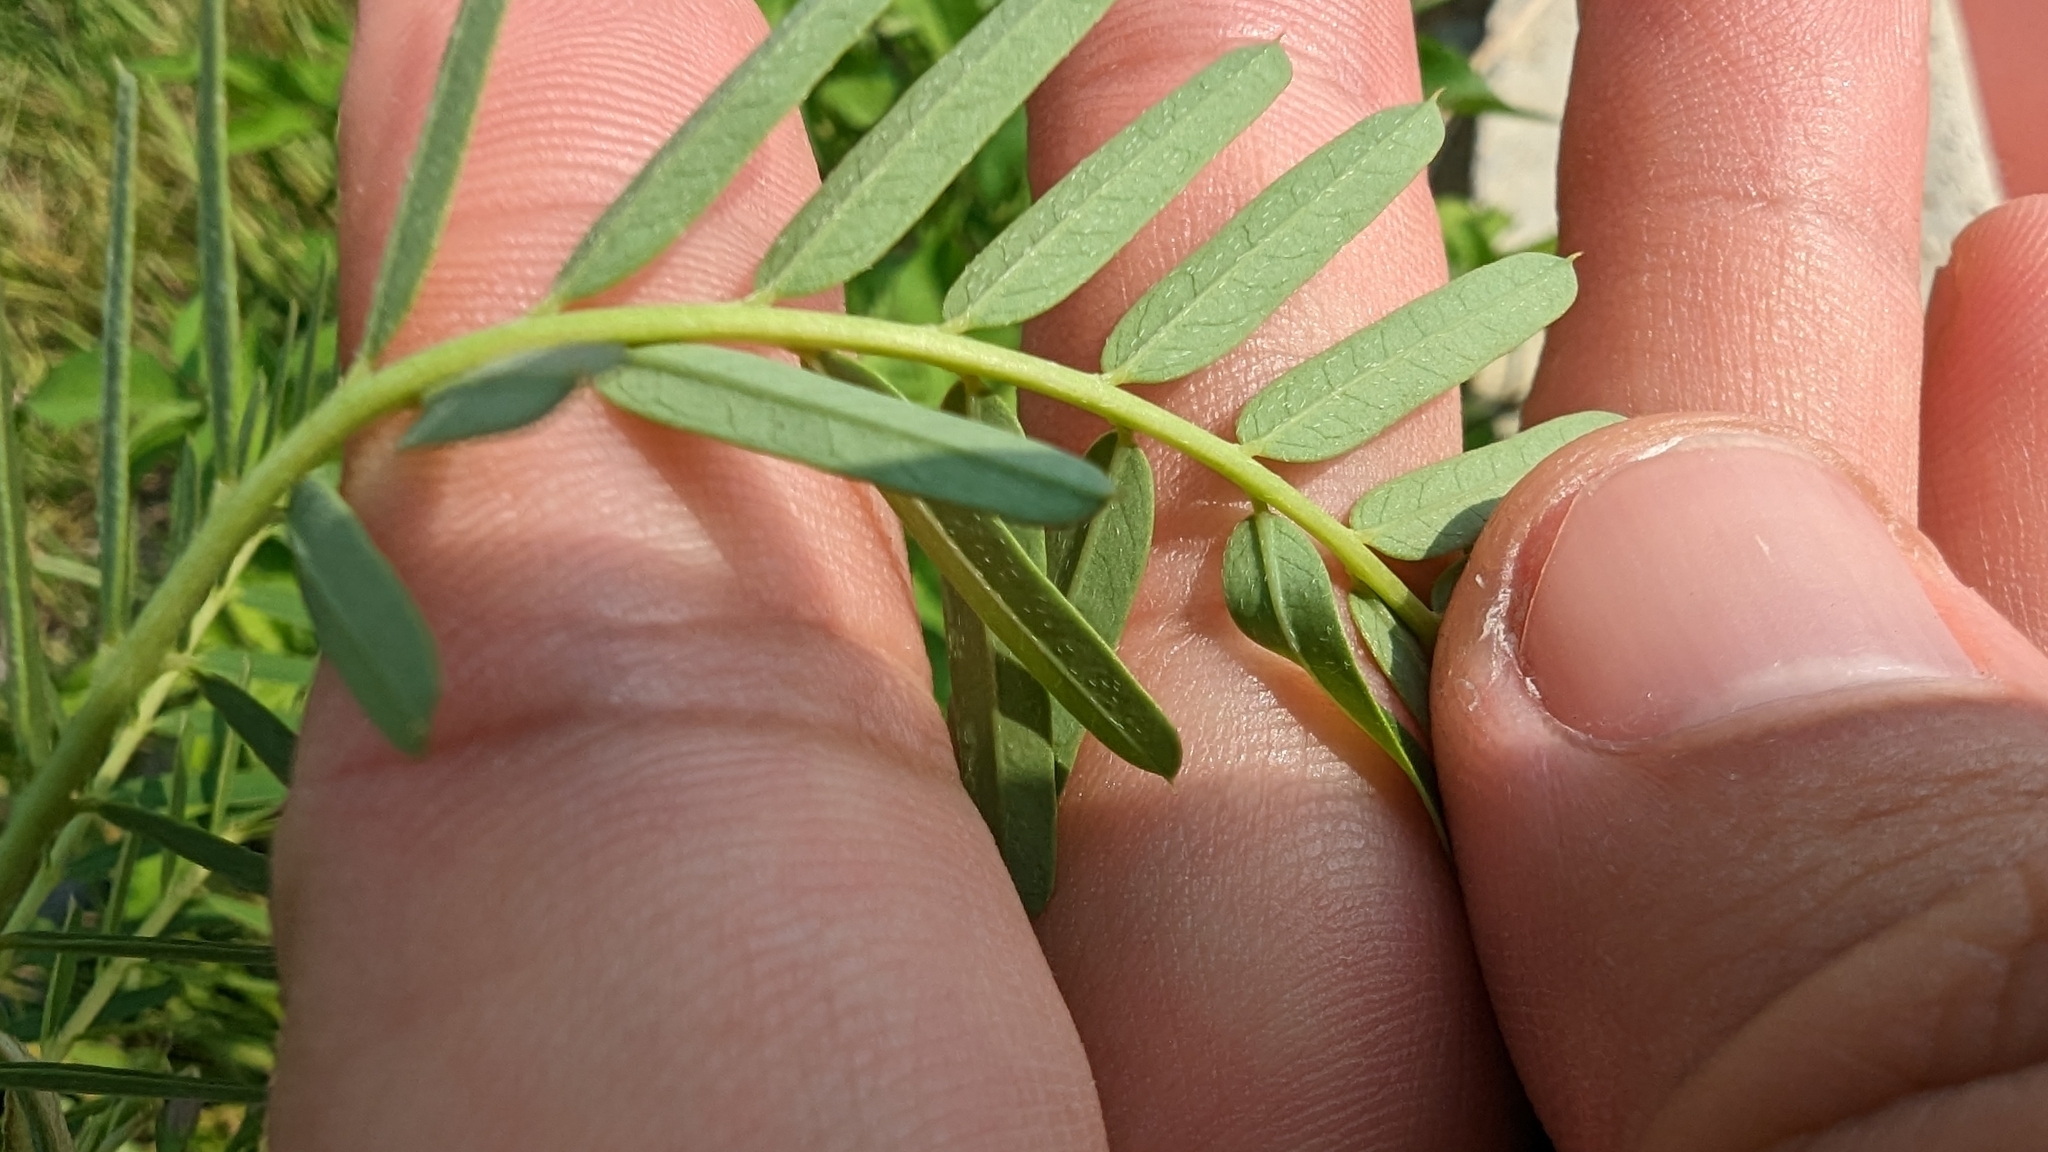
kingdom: Plantae
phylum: Tracheophyta
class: Magnoliopsida
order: Fabales
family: Fabaceae
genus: Sesbania
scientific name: Sesbania cannabina
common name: Canicha
